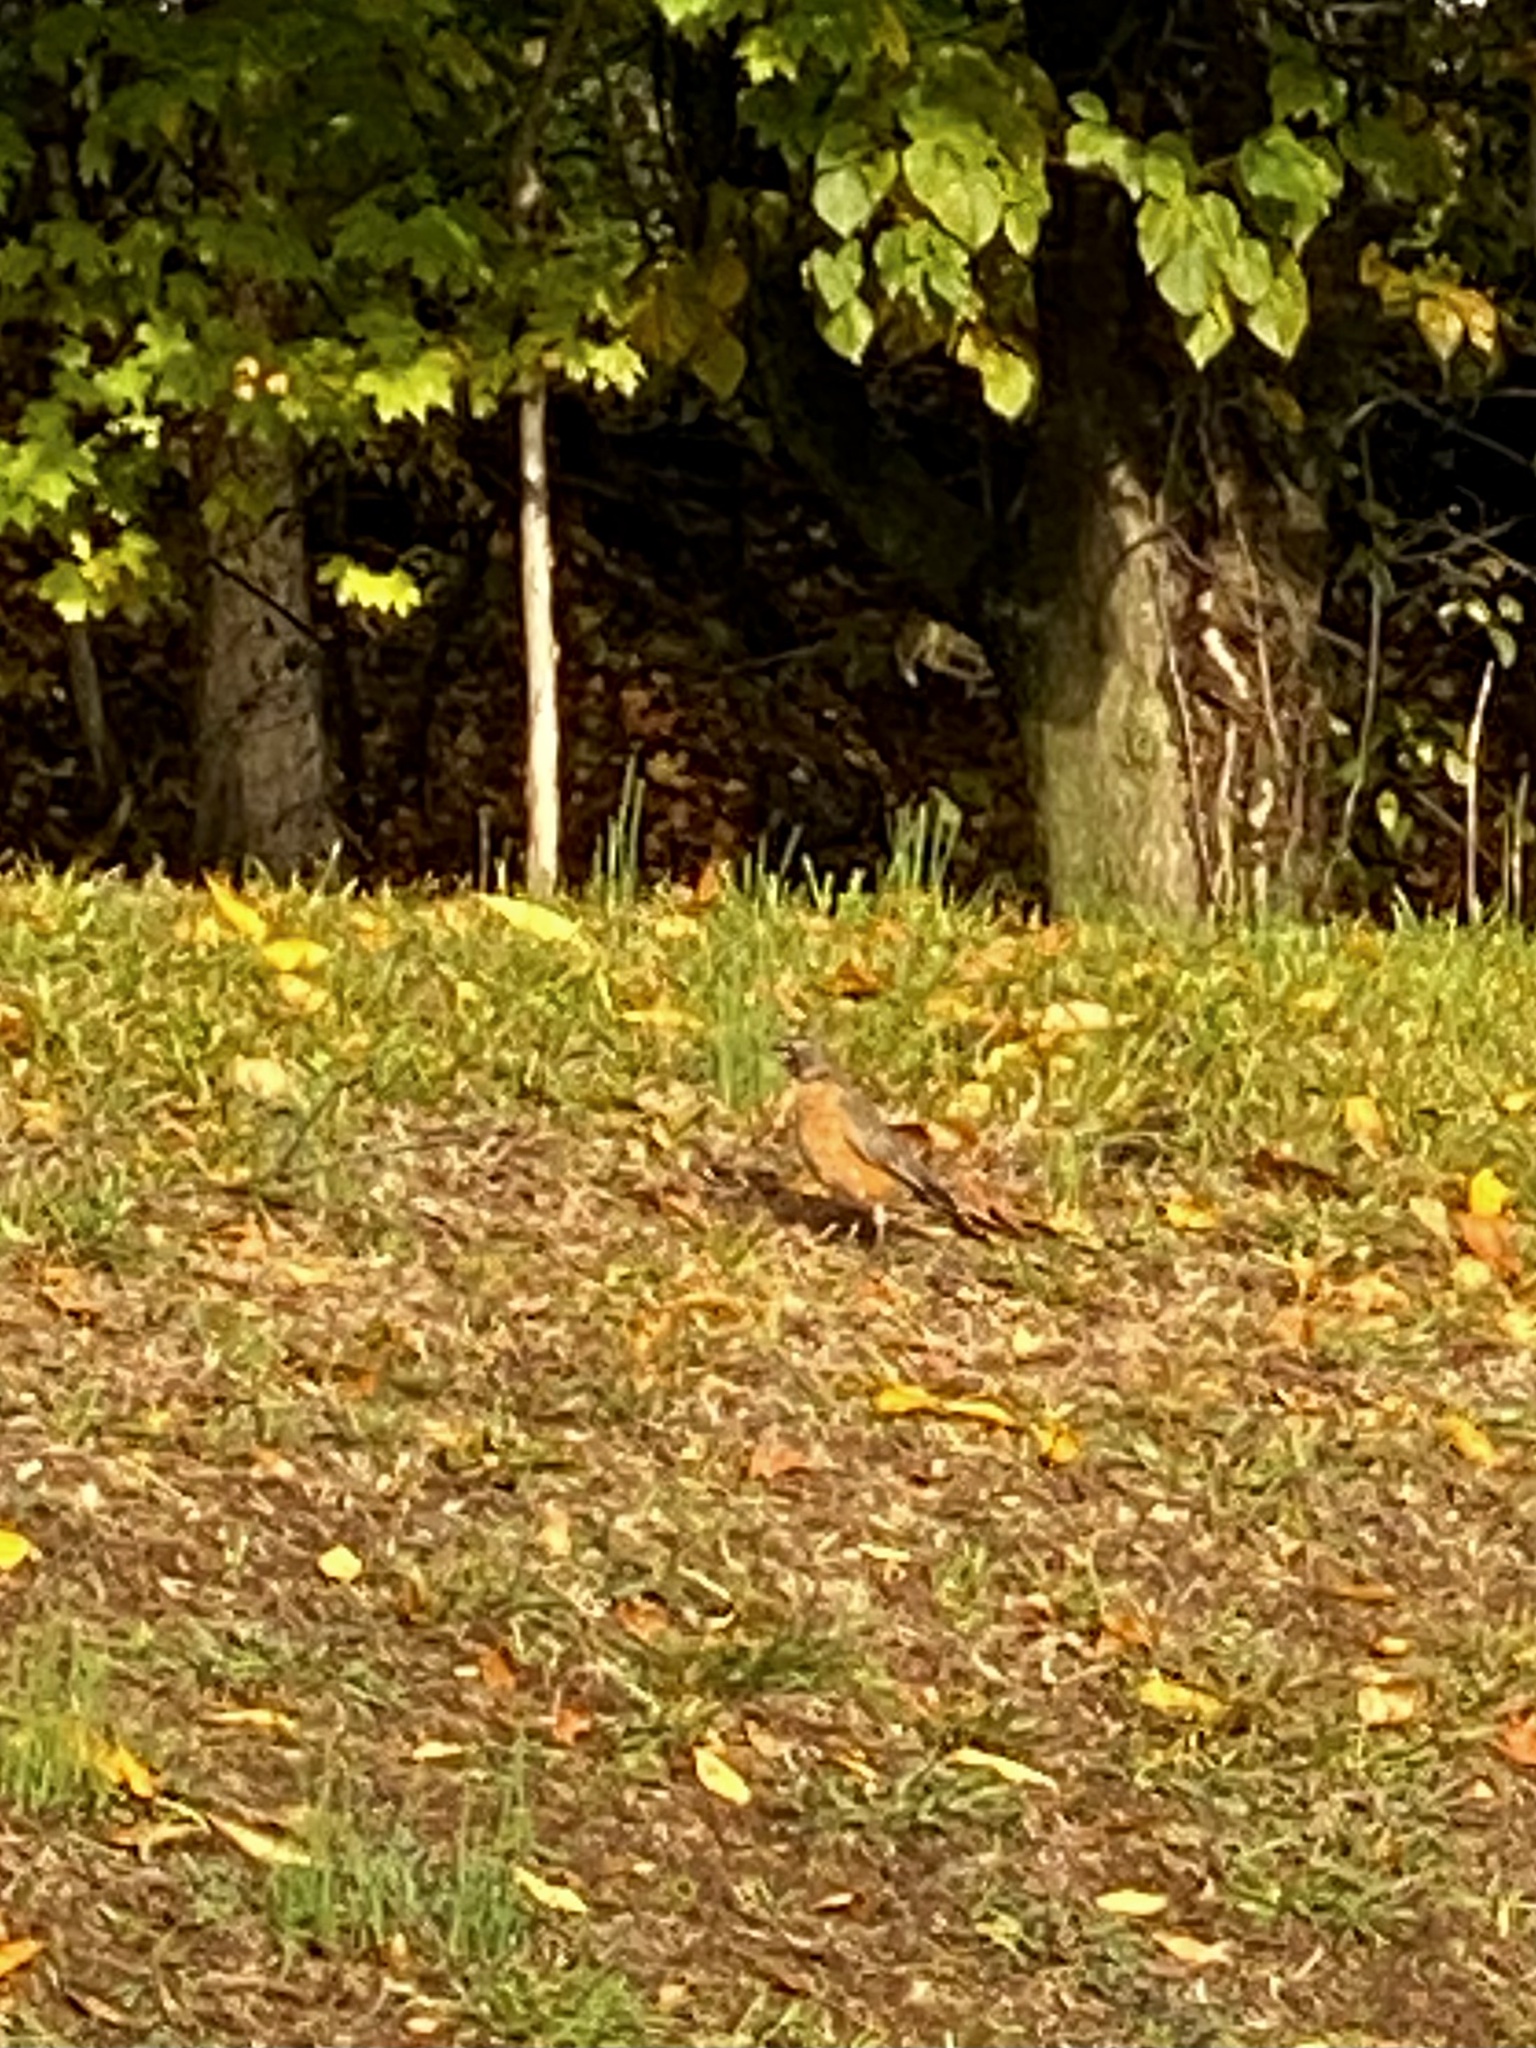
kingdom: Animalia
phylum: Chordata
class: Aves
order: Passeriformes
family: Turdidae
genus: Turdus
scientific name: Turdus migratorius
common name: American robin
